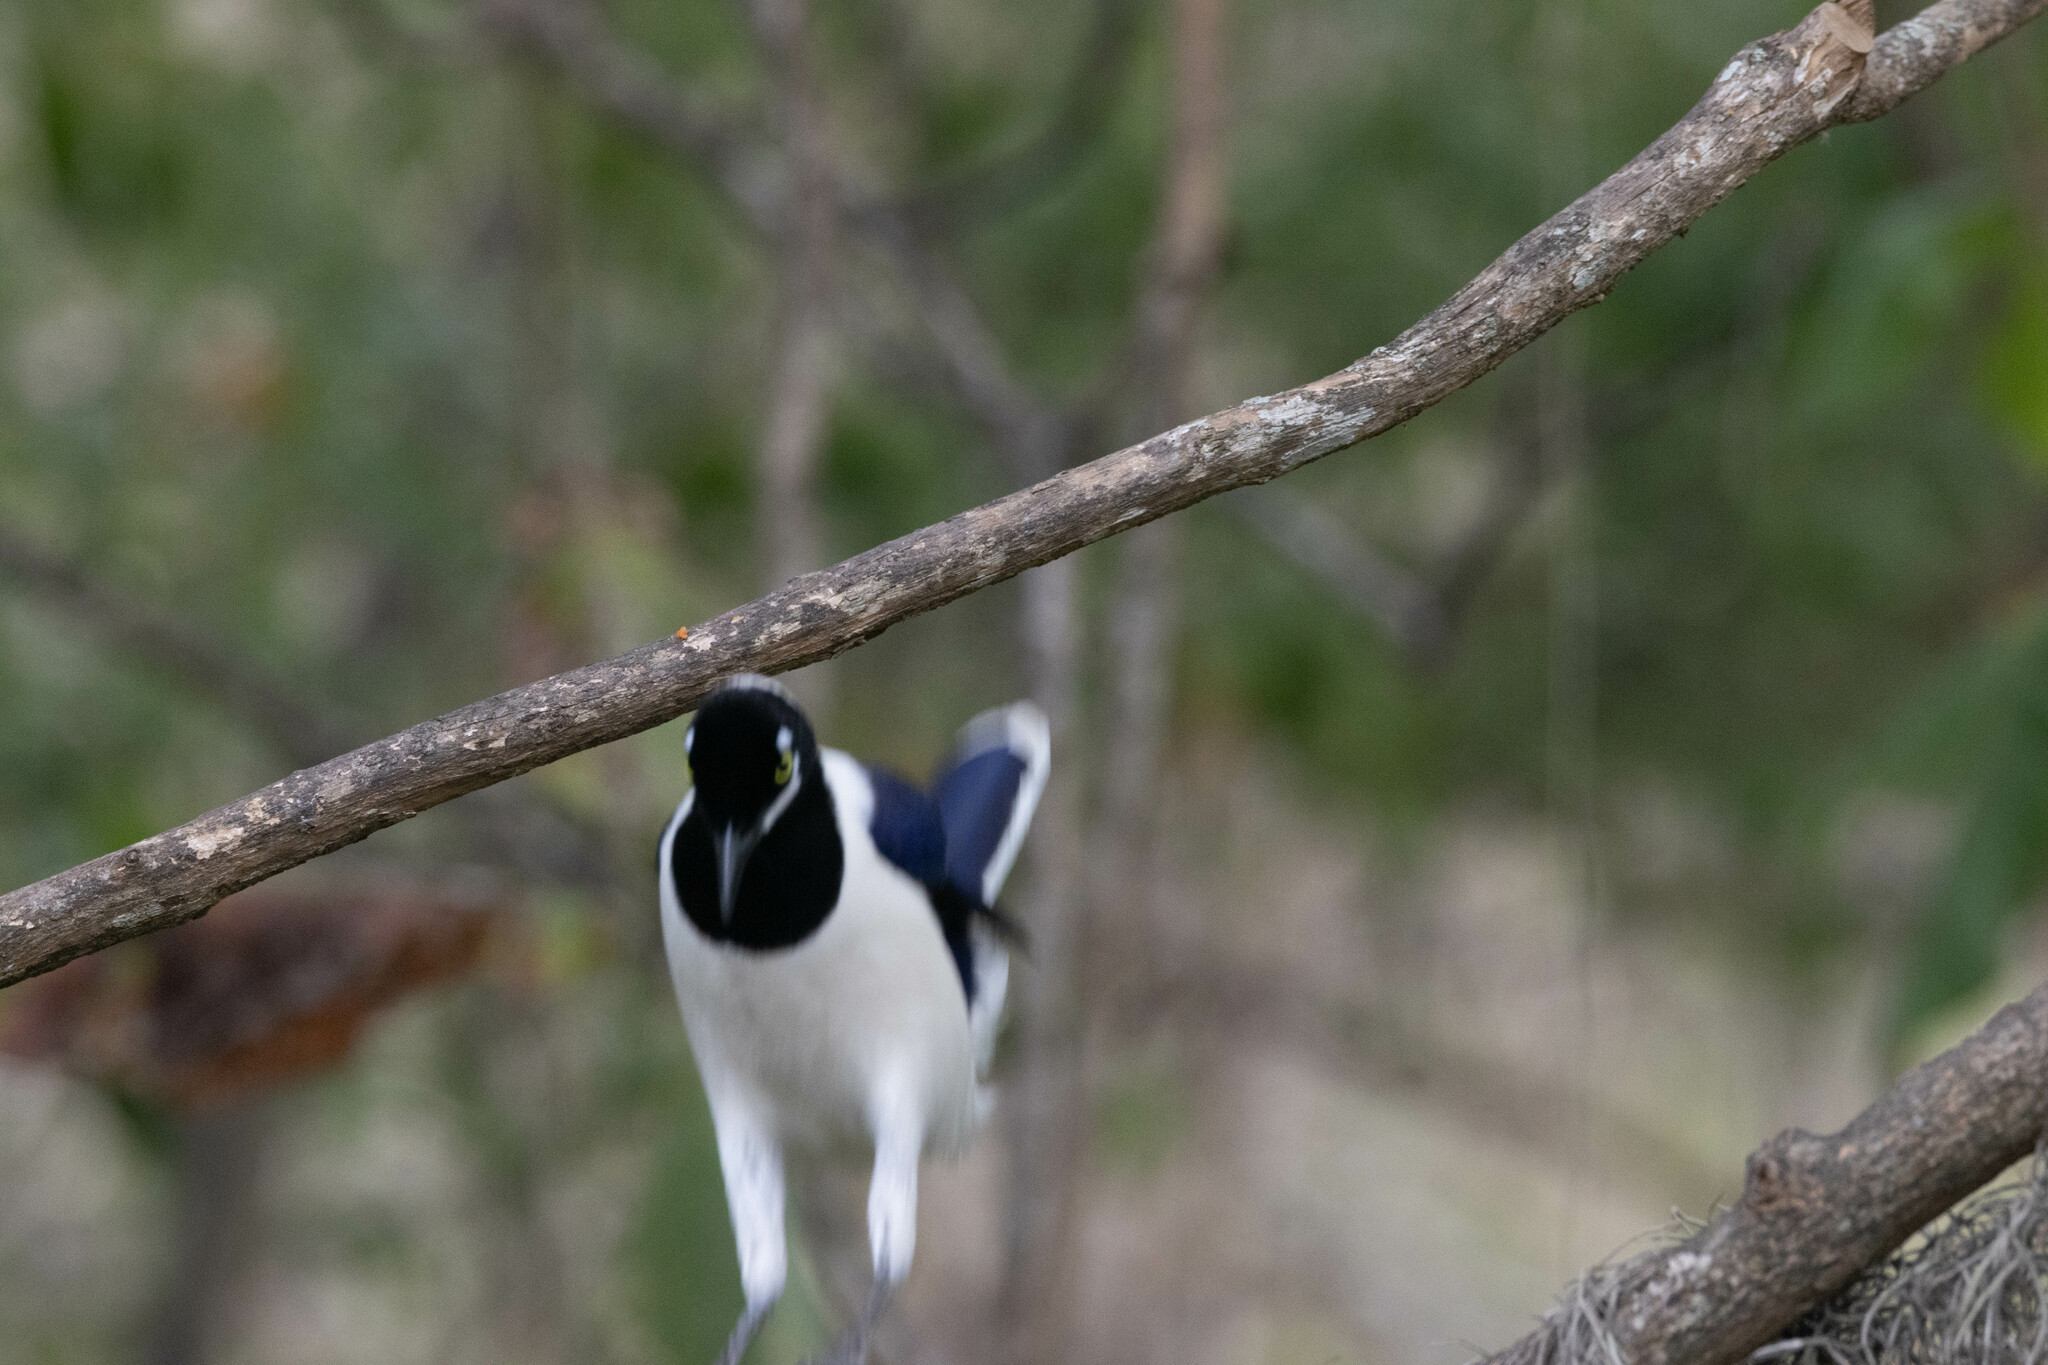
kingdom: Animalia
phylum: Chordata
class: Aves
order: Passeriformes
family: Corvidae
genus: Cyanocorax
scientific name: Cyanocorax mystacalis
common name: White-tailed jay
